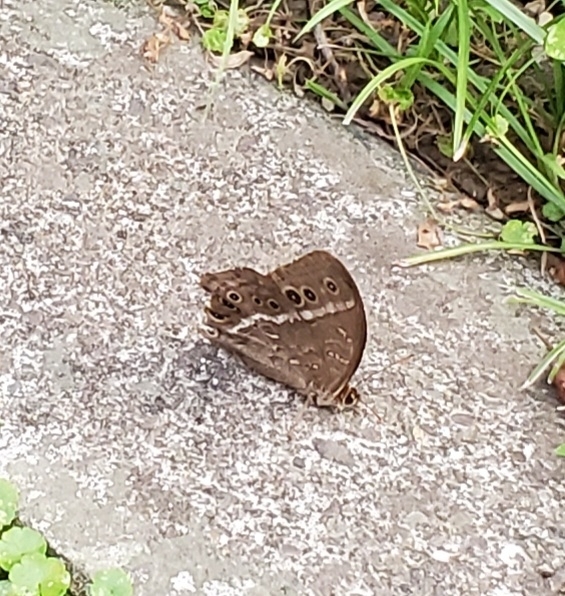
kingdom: Animalia
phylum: Arthropoda
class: Insecta
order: Lepidoptera
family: Nymphalidae
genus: Neope
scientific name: Neope muirheadii
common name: Black-spotted labyrinth
